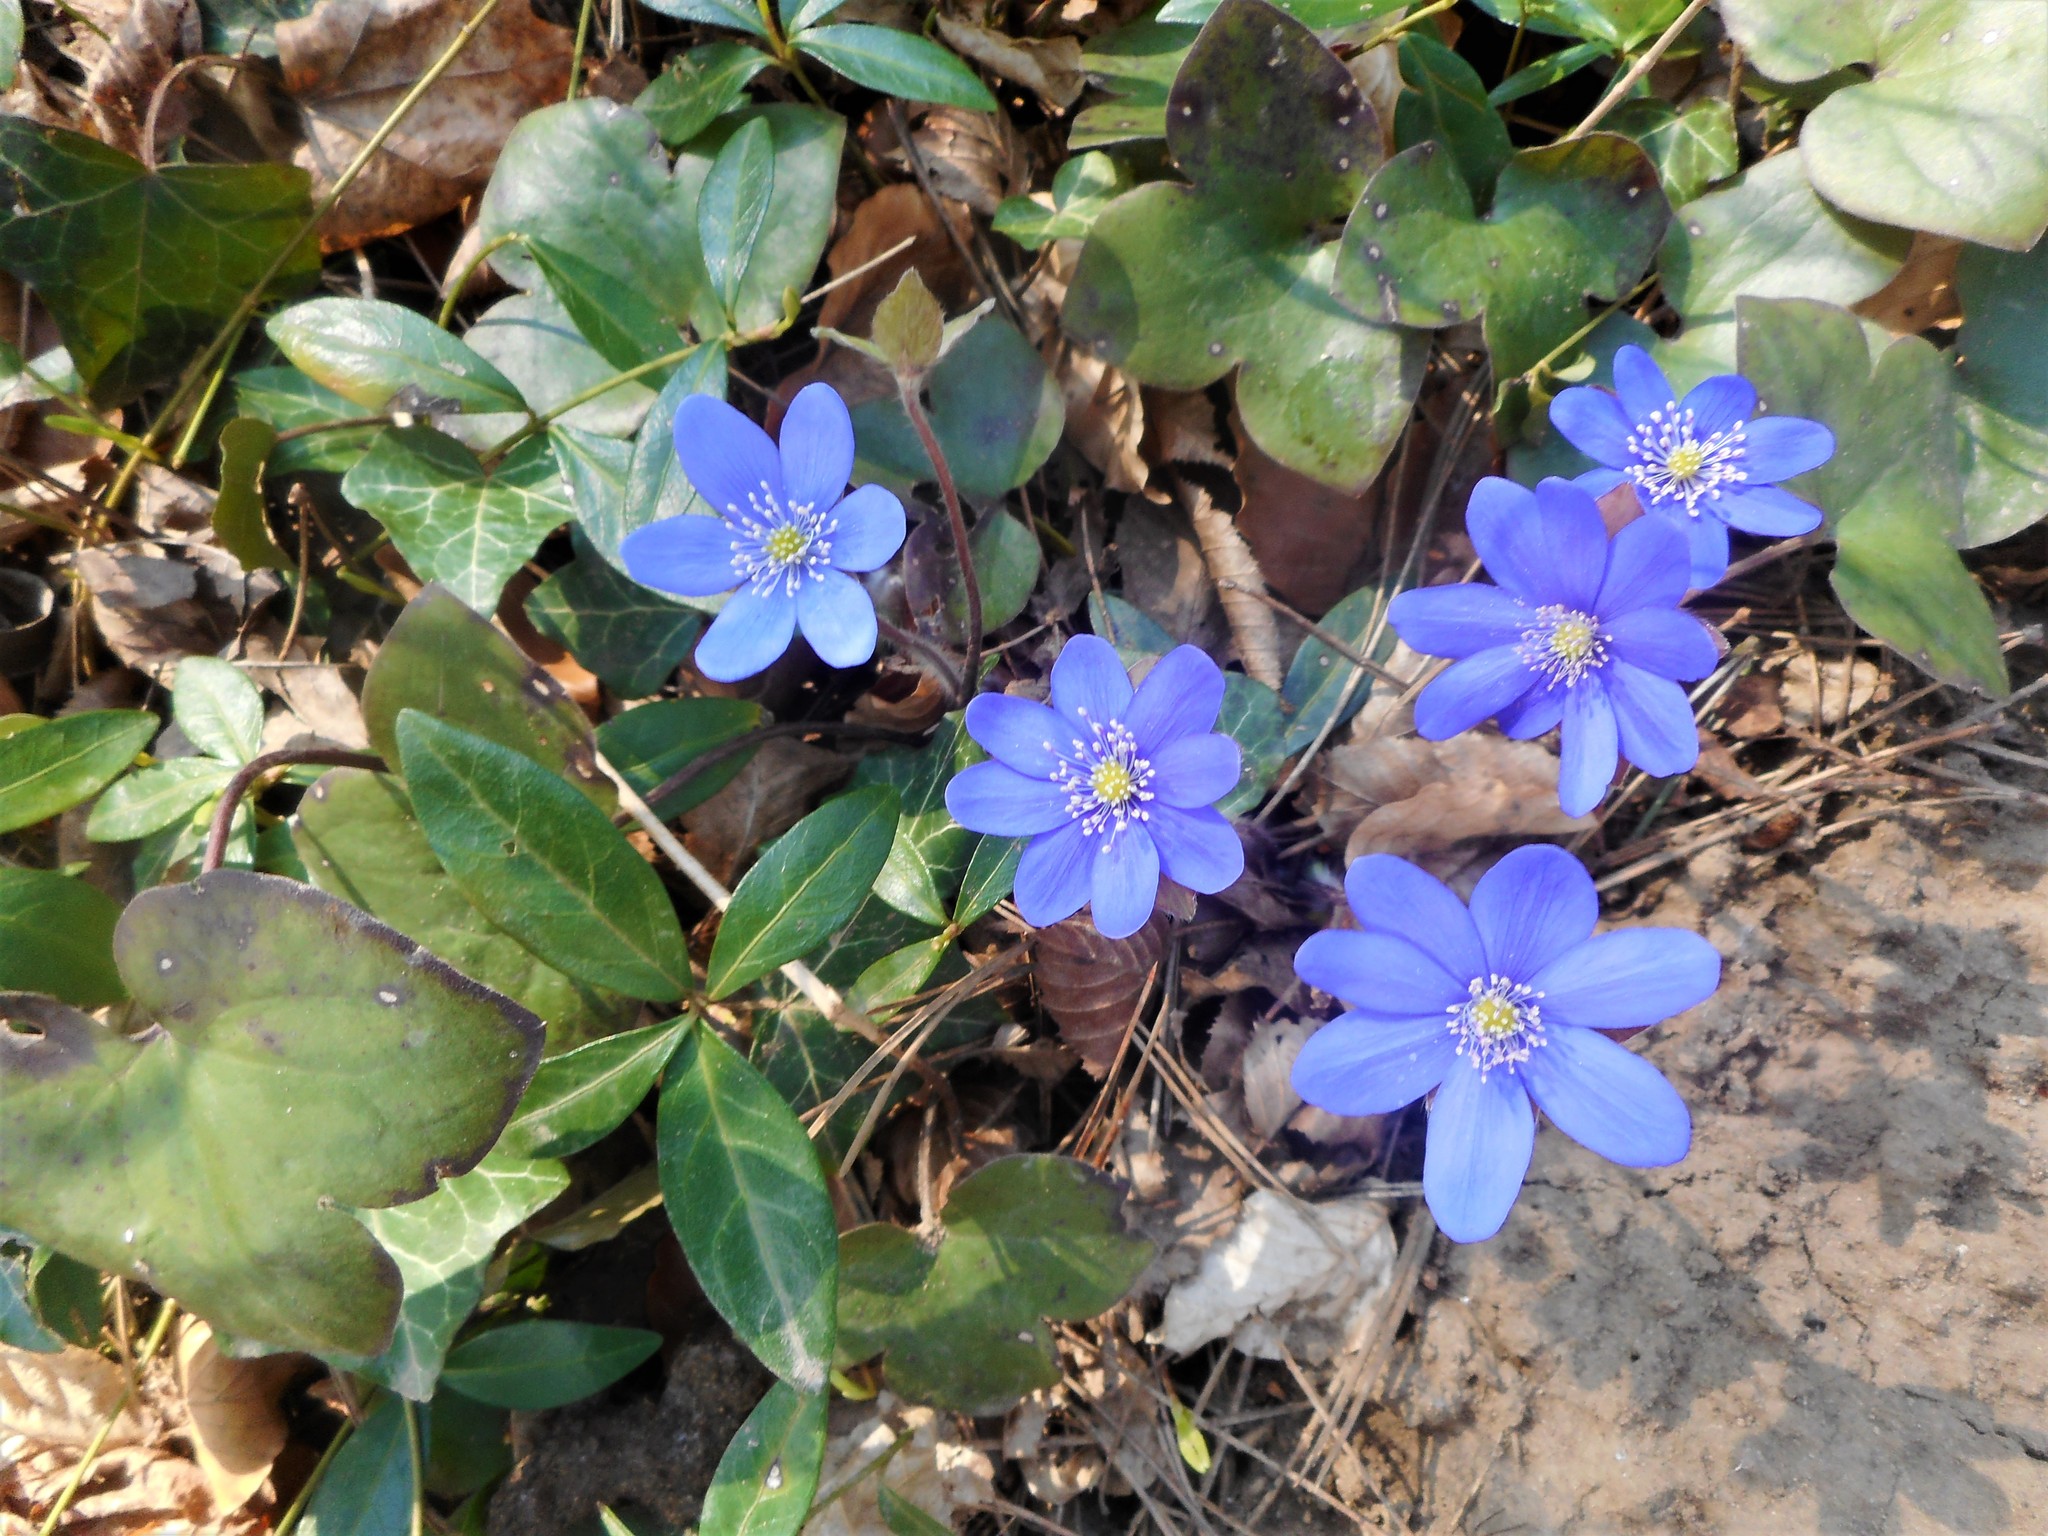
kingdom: Plantae
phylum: Tracheophyta
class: Magnoliopsida
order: Ranunculales
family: Ranunculaceae
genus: Hepatica
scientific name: Hepatica nobilis
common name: Liverleaf
